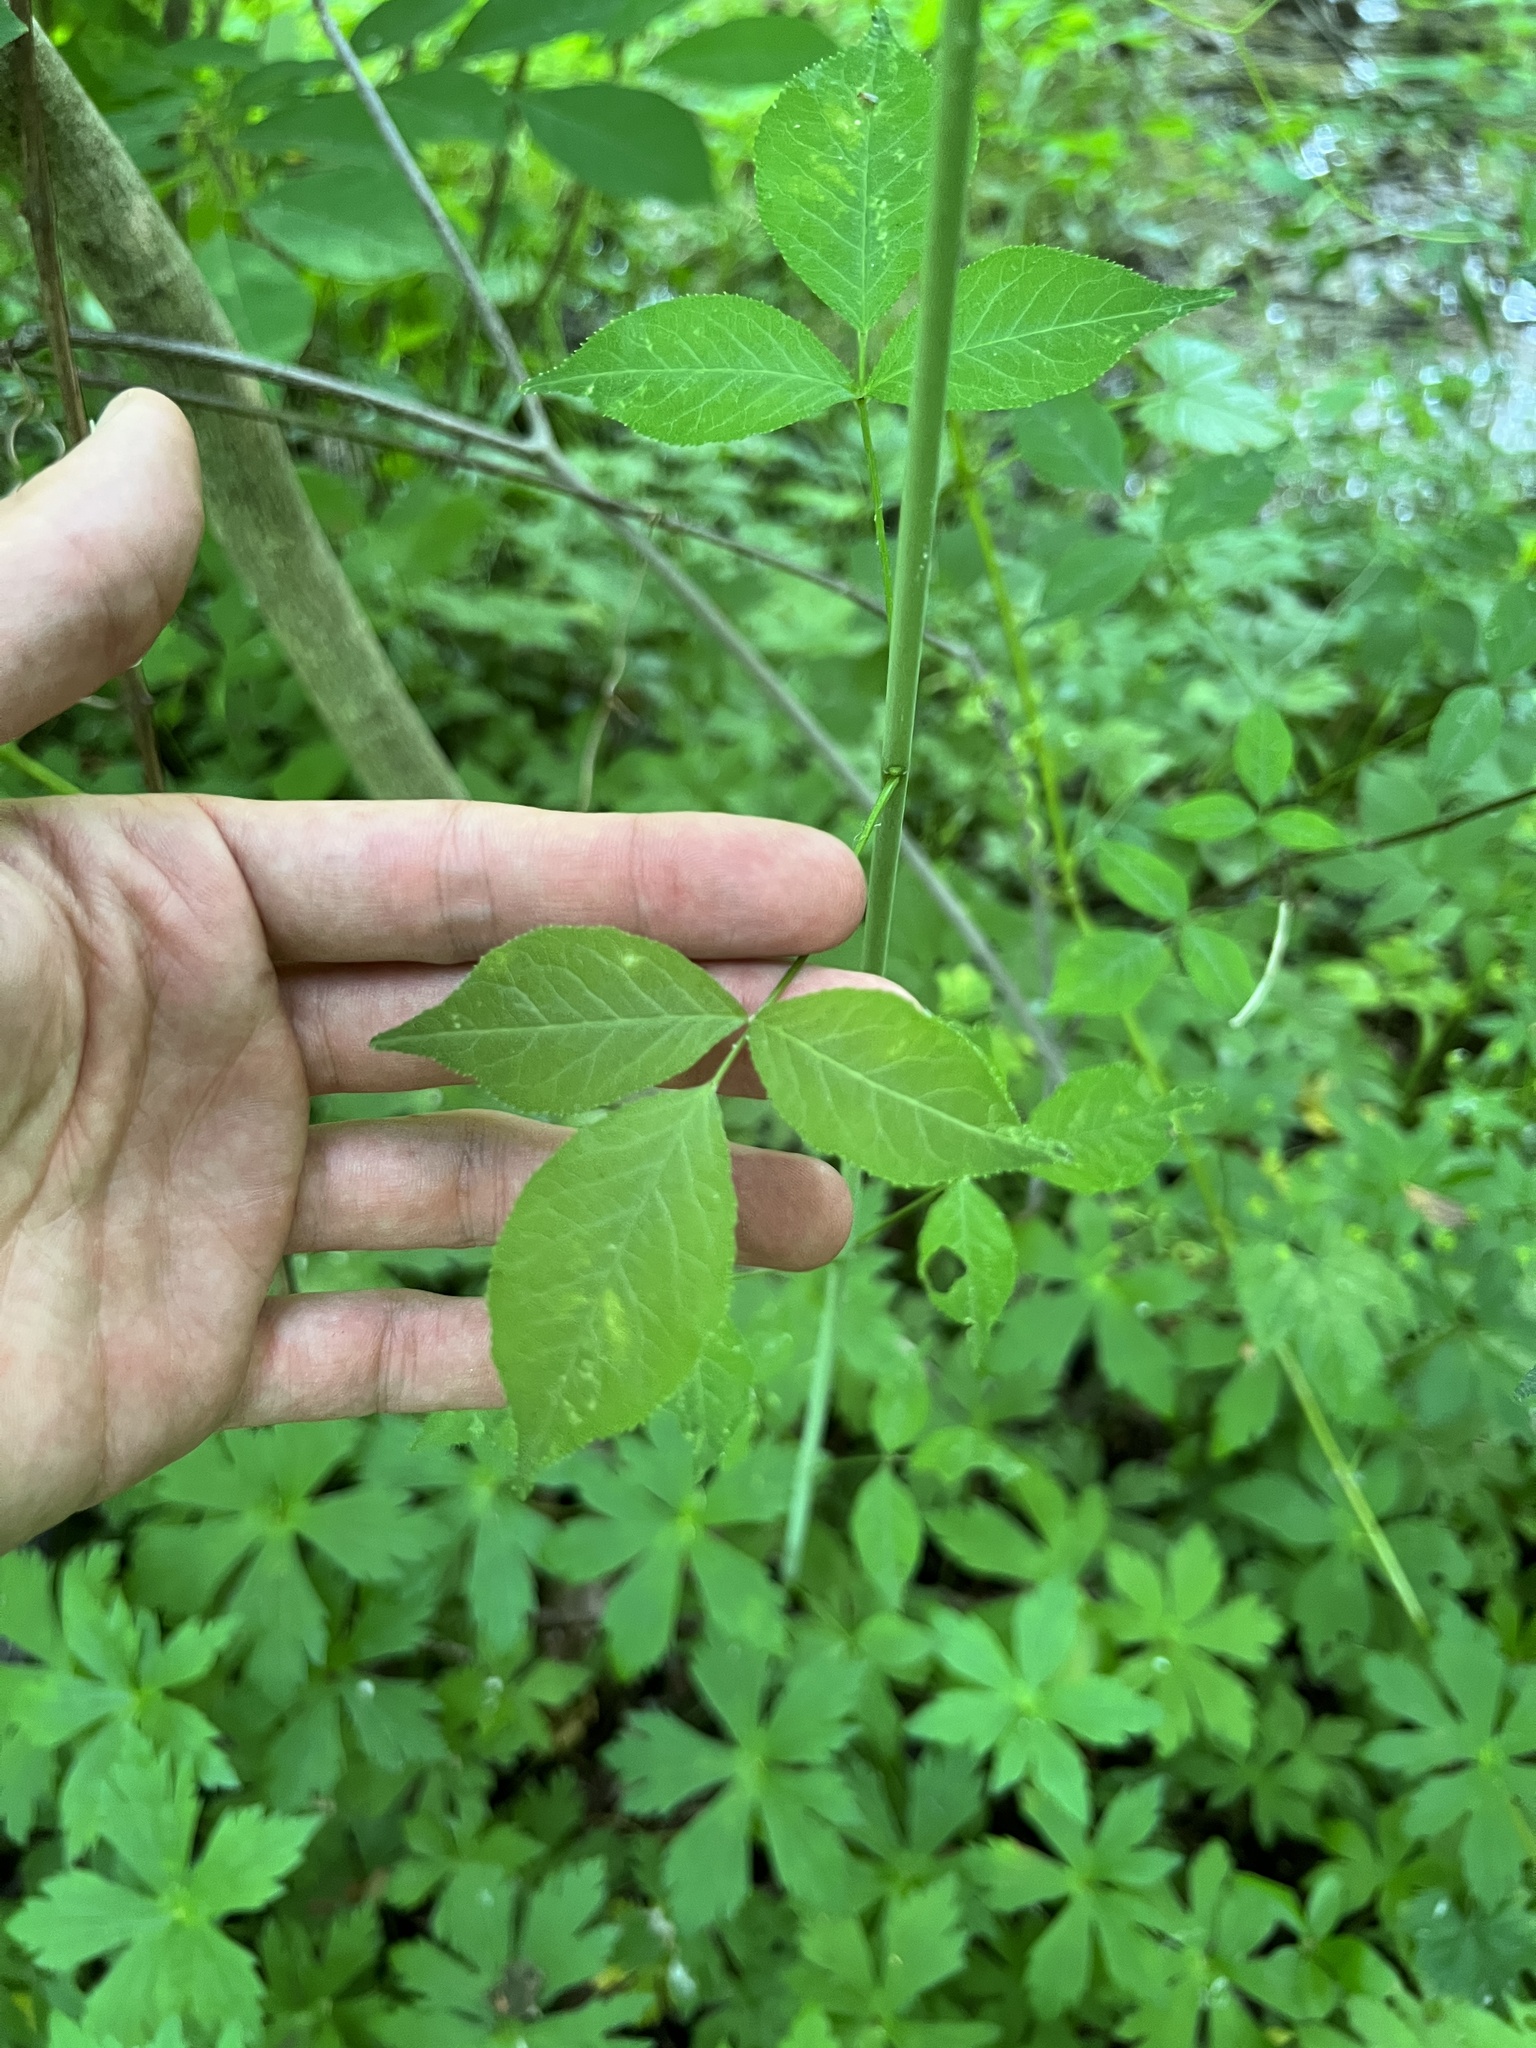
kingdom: Plantae
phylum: Tracheophyta
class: Magnoliopsida
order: Crossosomatales
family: Staphyleaceae
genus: Staphylea
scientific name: Staphylea trifolia
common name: American bladdernut
